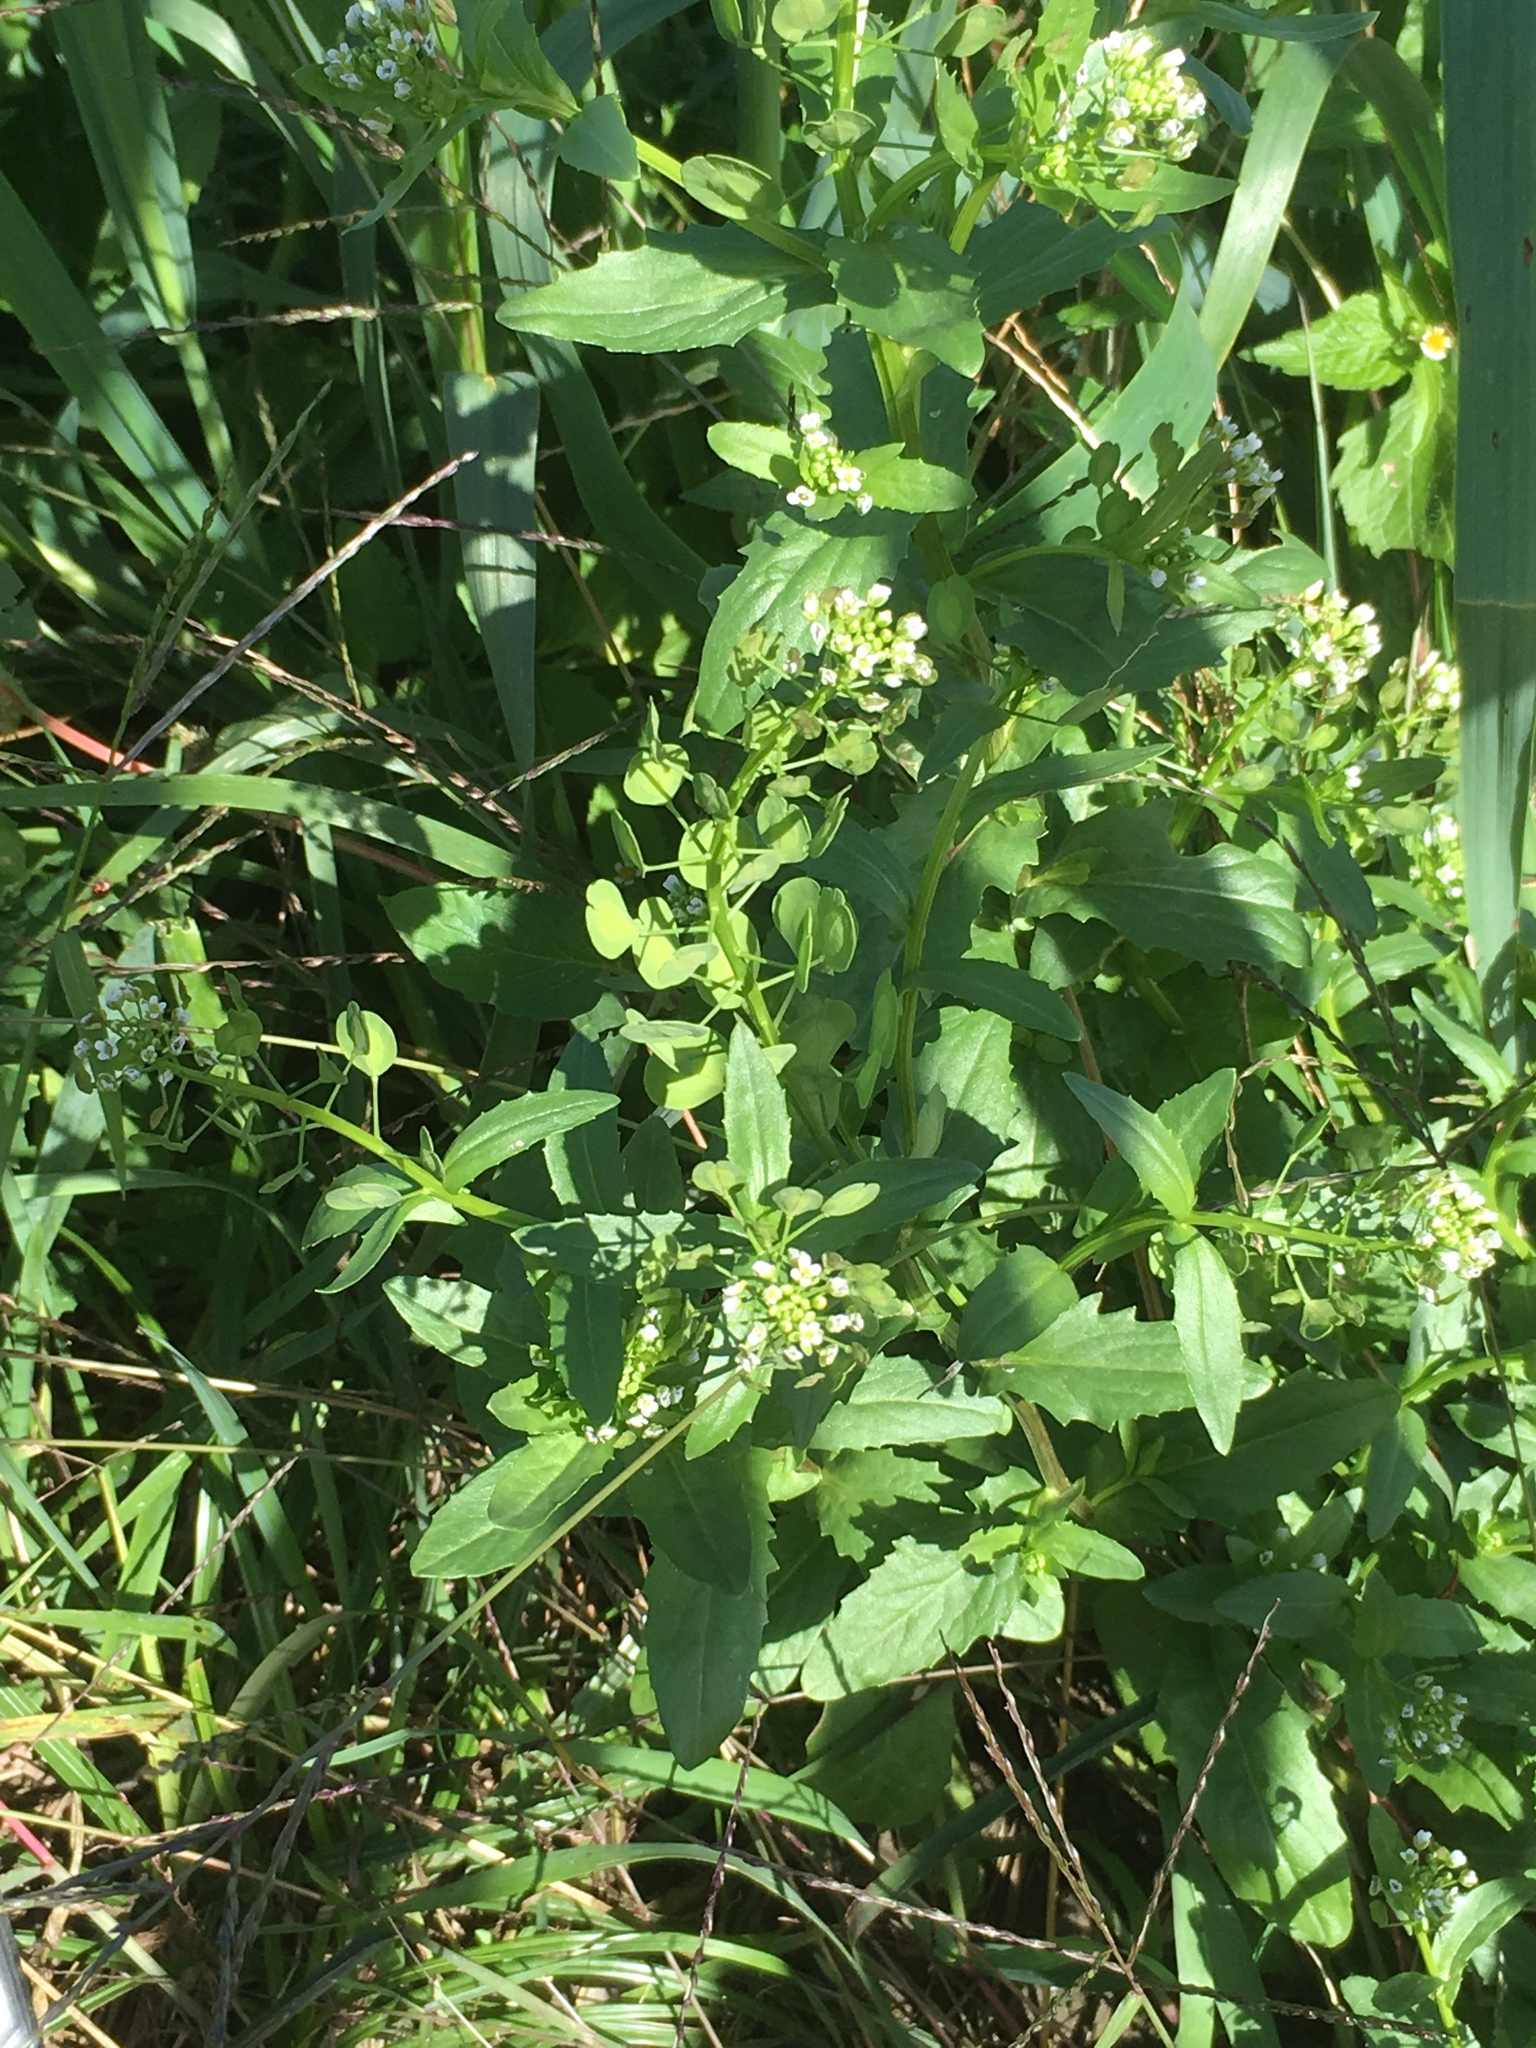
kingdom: Plantae
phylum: Tracheophyta
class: Magnoliopsida
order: Brassicales
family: Brassicaceae
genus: Thlaspi
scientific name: Thlaspi arvense
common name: Field pennycress
